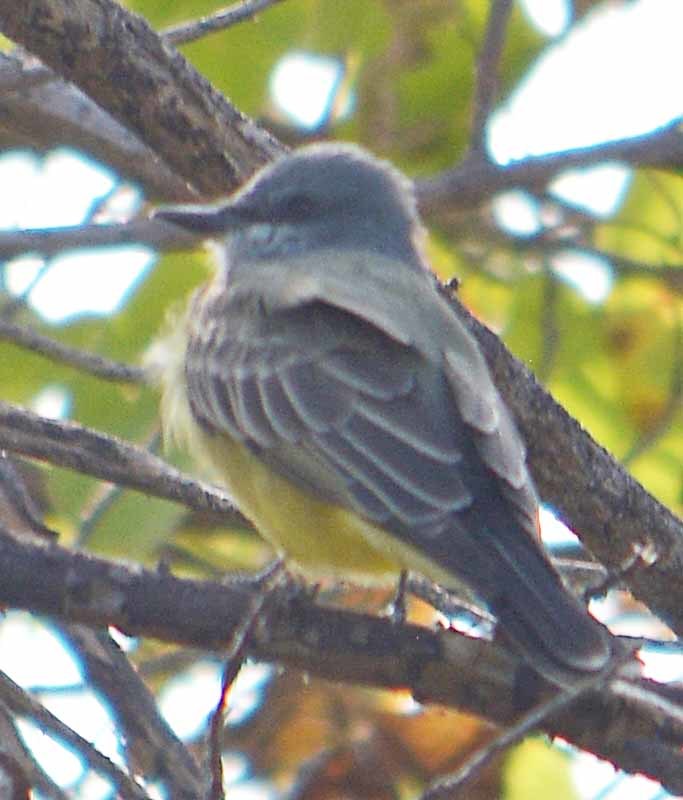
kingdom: Animalia
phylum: Chordata
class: Aves
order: Passeriformes
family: Tyrannidae
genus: Tyrannus
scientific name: Tyrannus vociferans
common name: Cassin's kingbird
